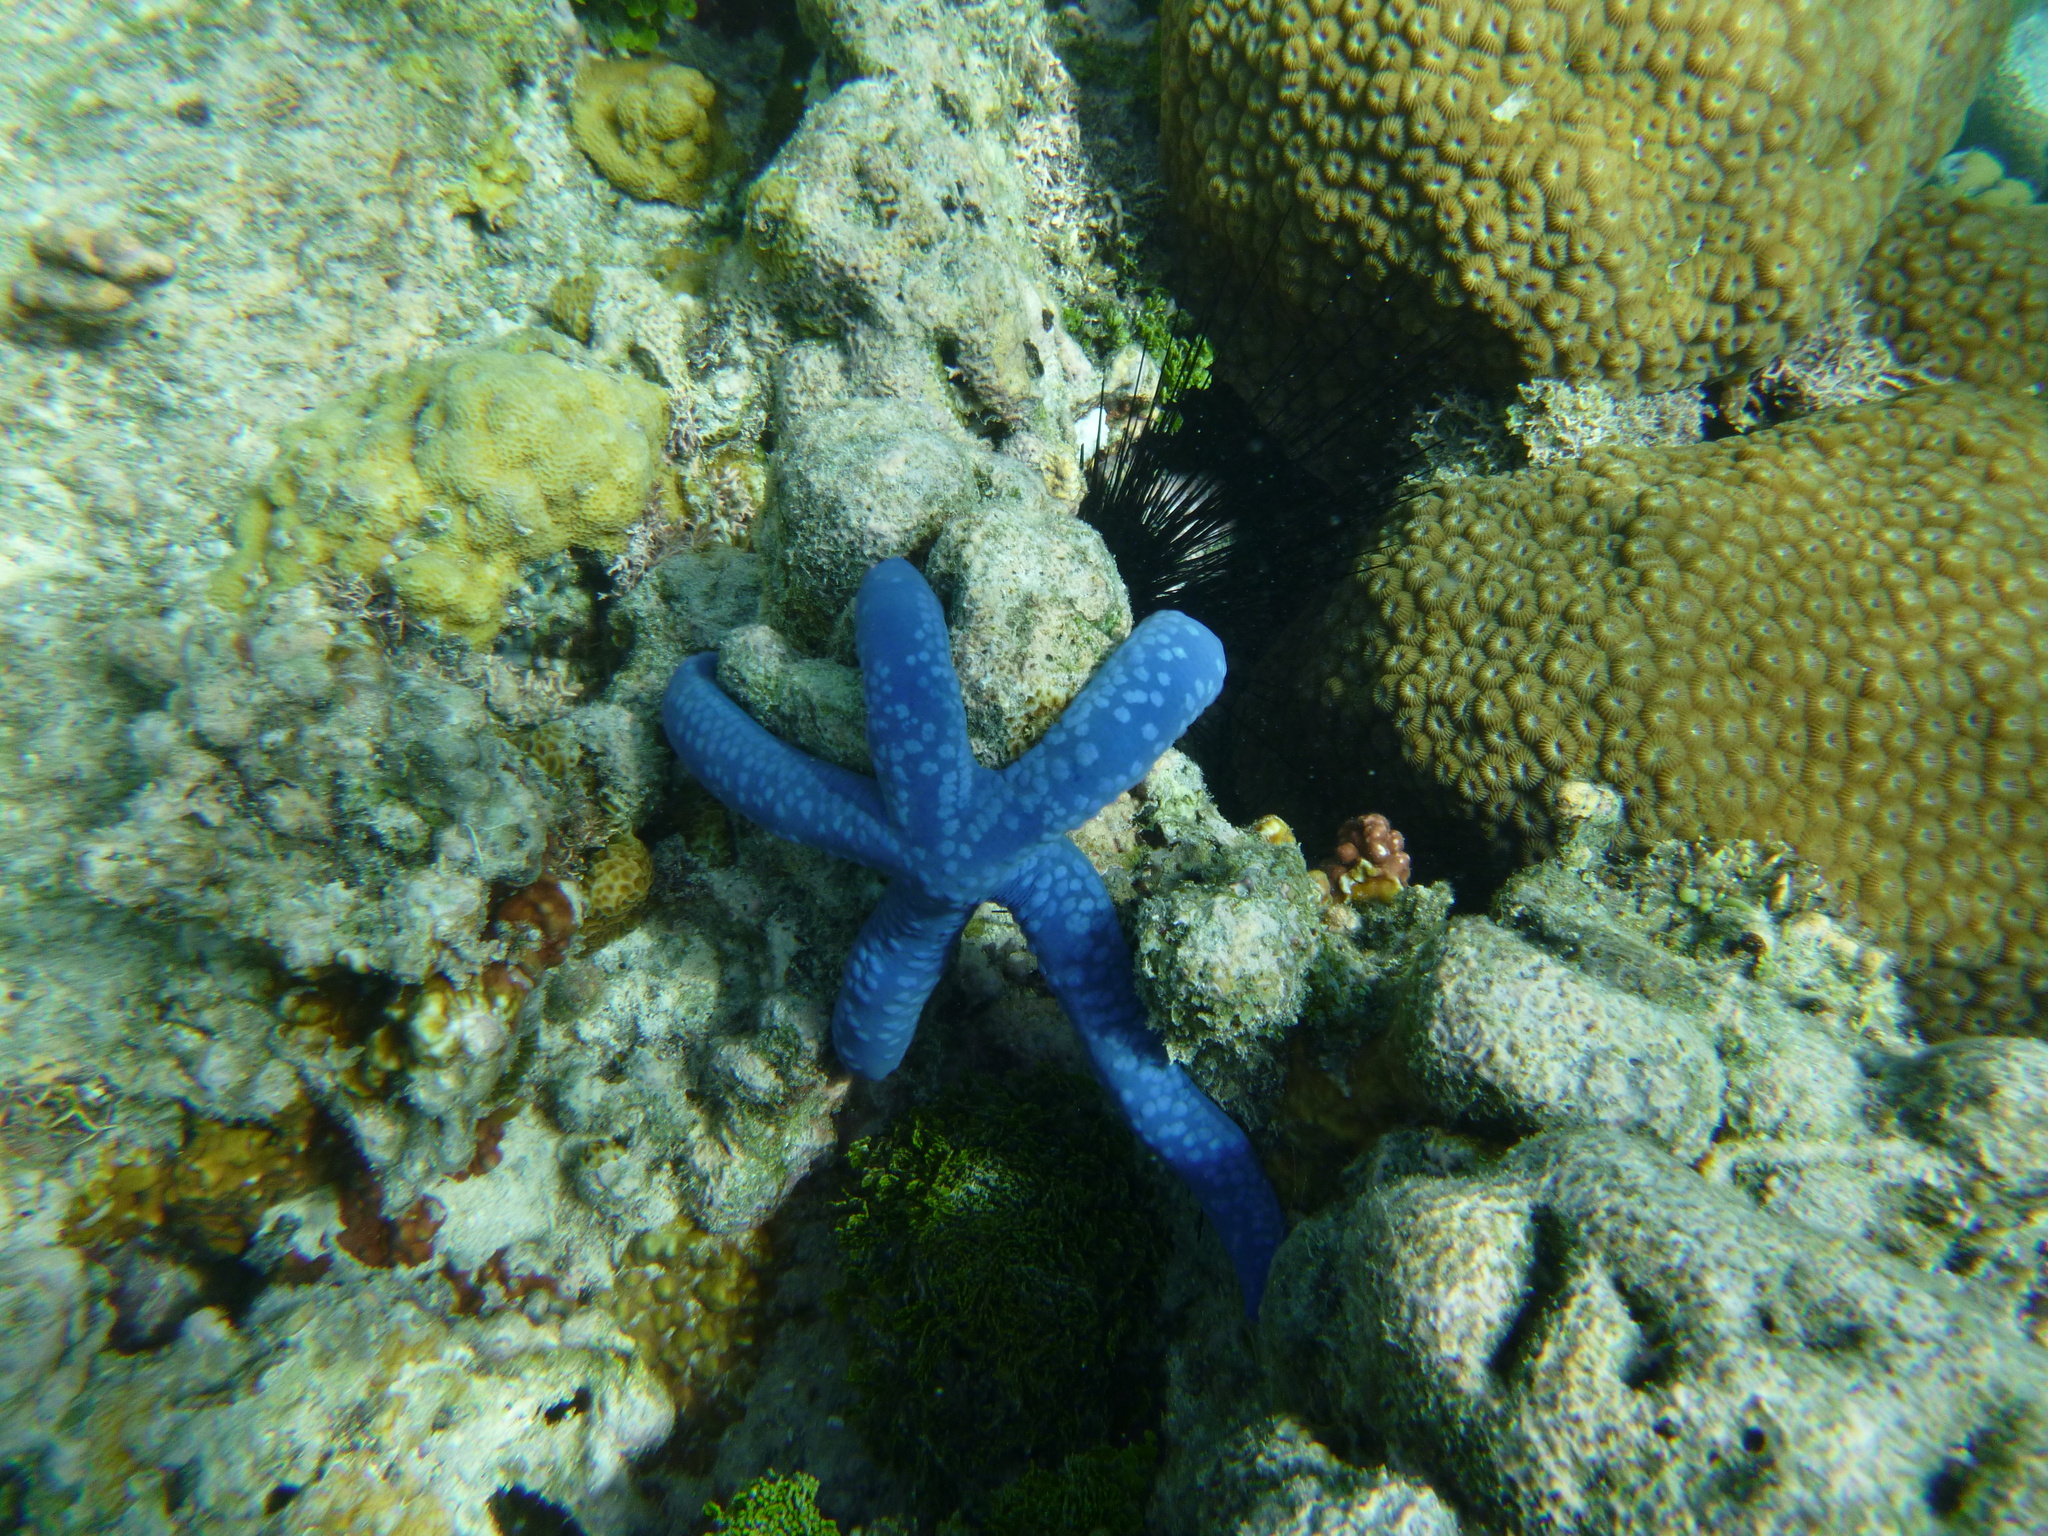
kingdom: Animalia
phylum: Echinodermata
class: Asteroidea
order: Valvatida
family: Ophidiasteridae
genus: Linckia
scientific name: Linckia laevigata
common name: Azure sea star
